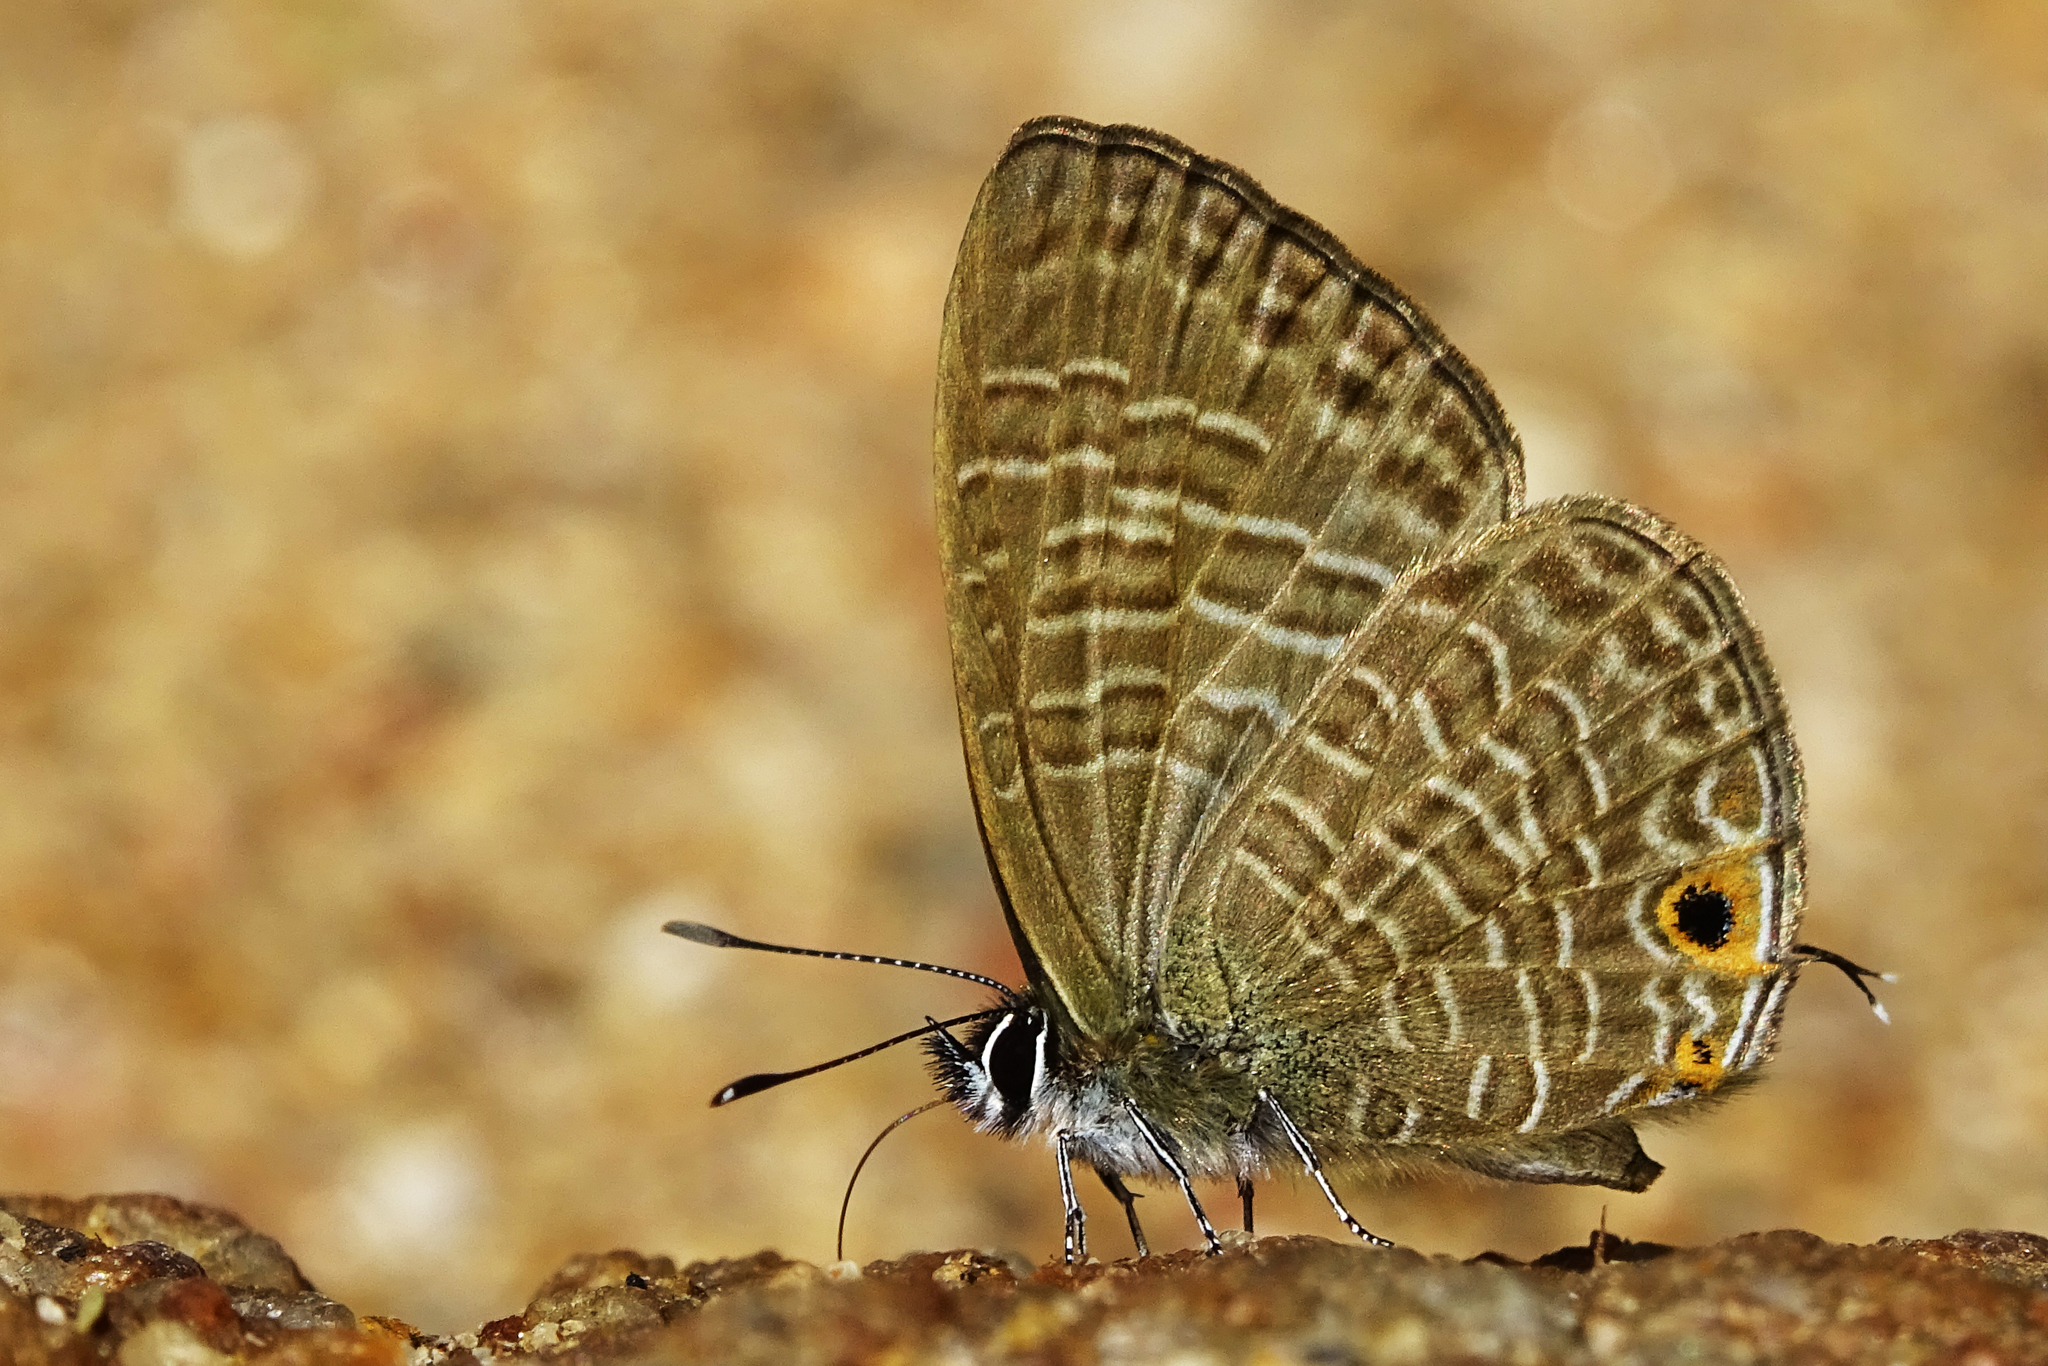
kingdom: Animalia
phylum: Arthropoda
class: Insecta
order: Lepidoptera
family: Lycaenidae
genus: Nacaduba
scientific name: Nacaduba kurava
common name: Transparent 6-line blue
